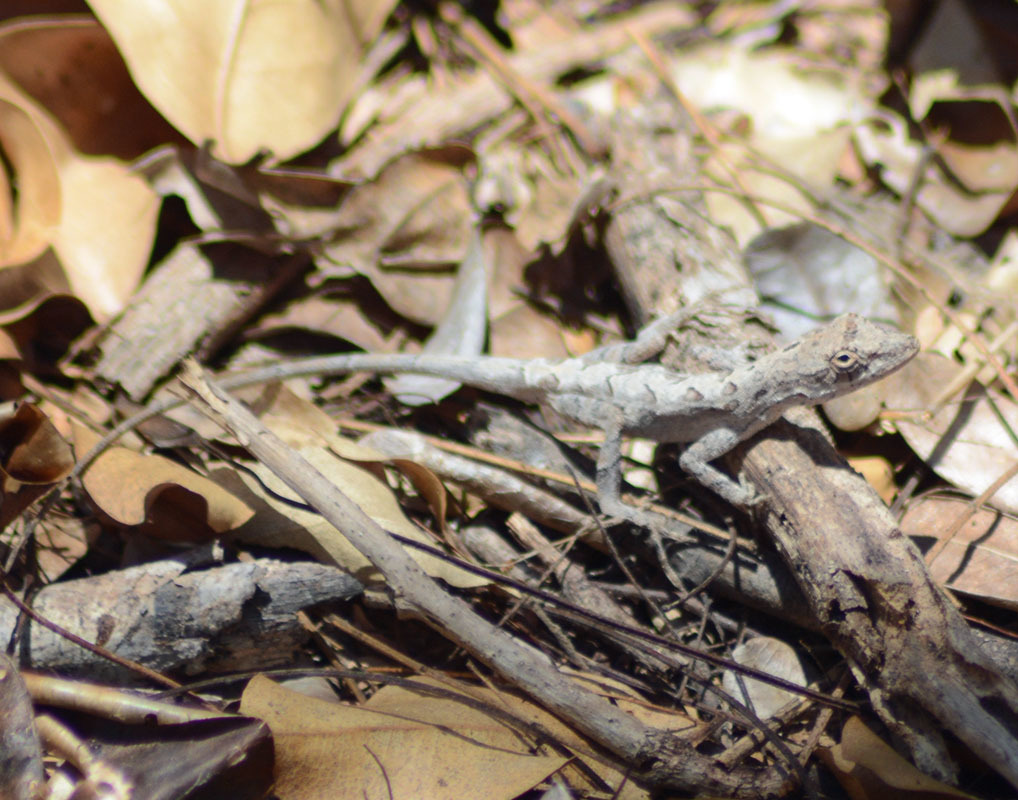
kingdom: Animalia
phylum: Chordata
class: Squamata
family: Dactyloidae
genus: Anolis
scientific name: Anolis nebulosus
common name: Clouded anole
